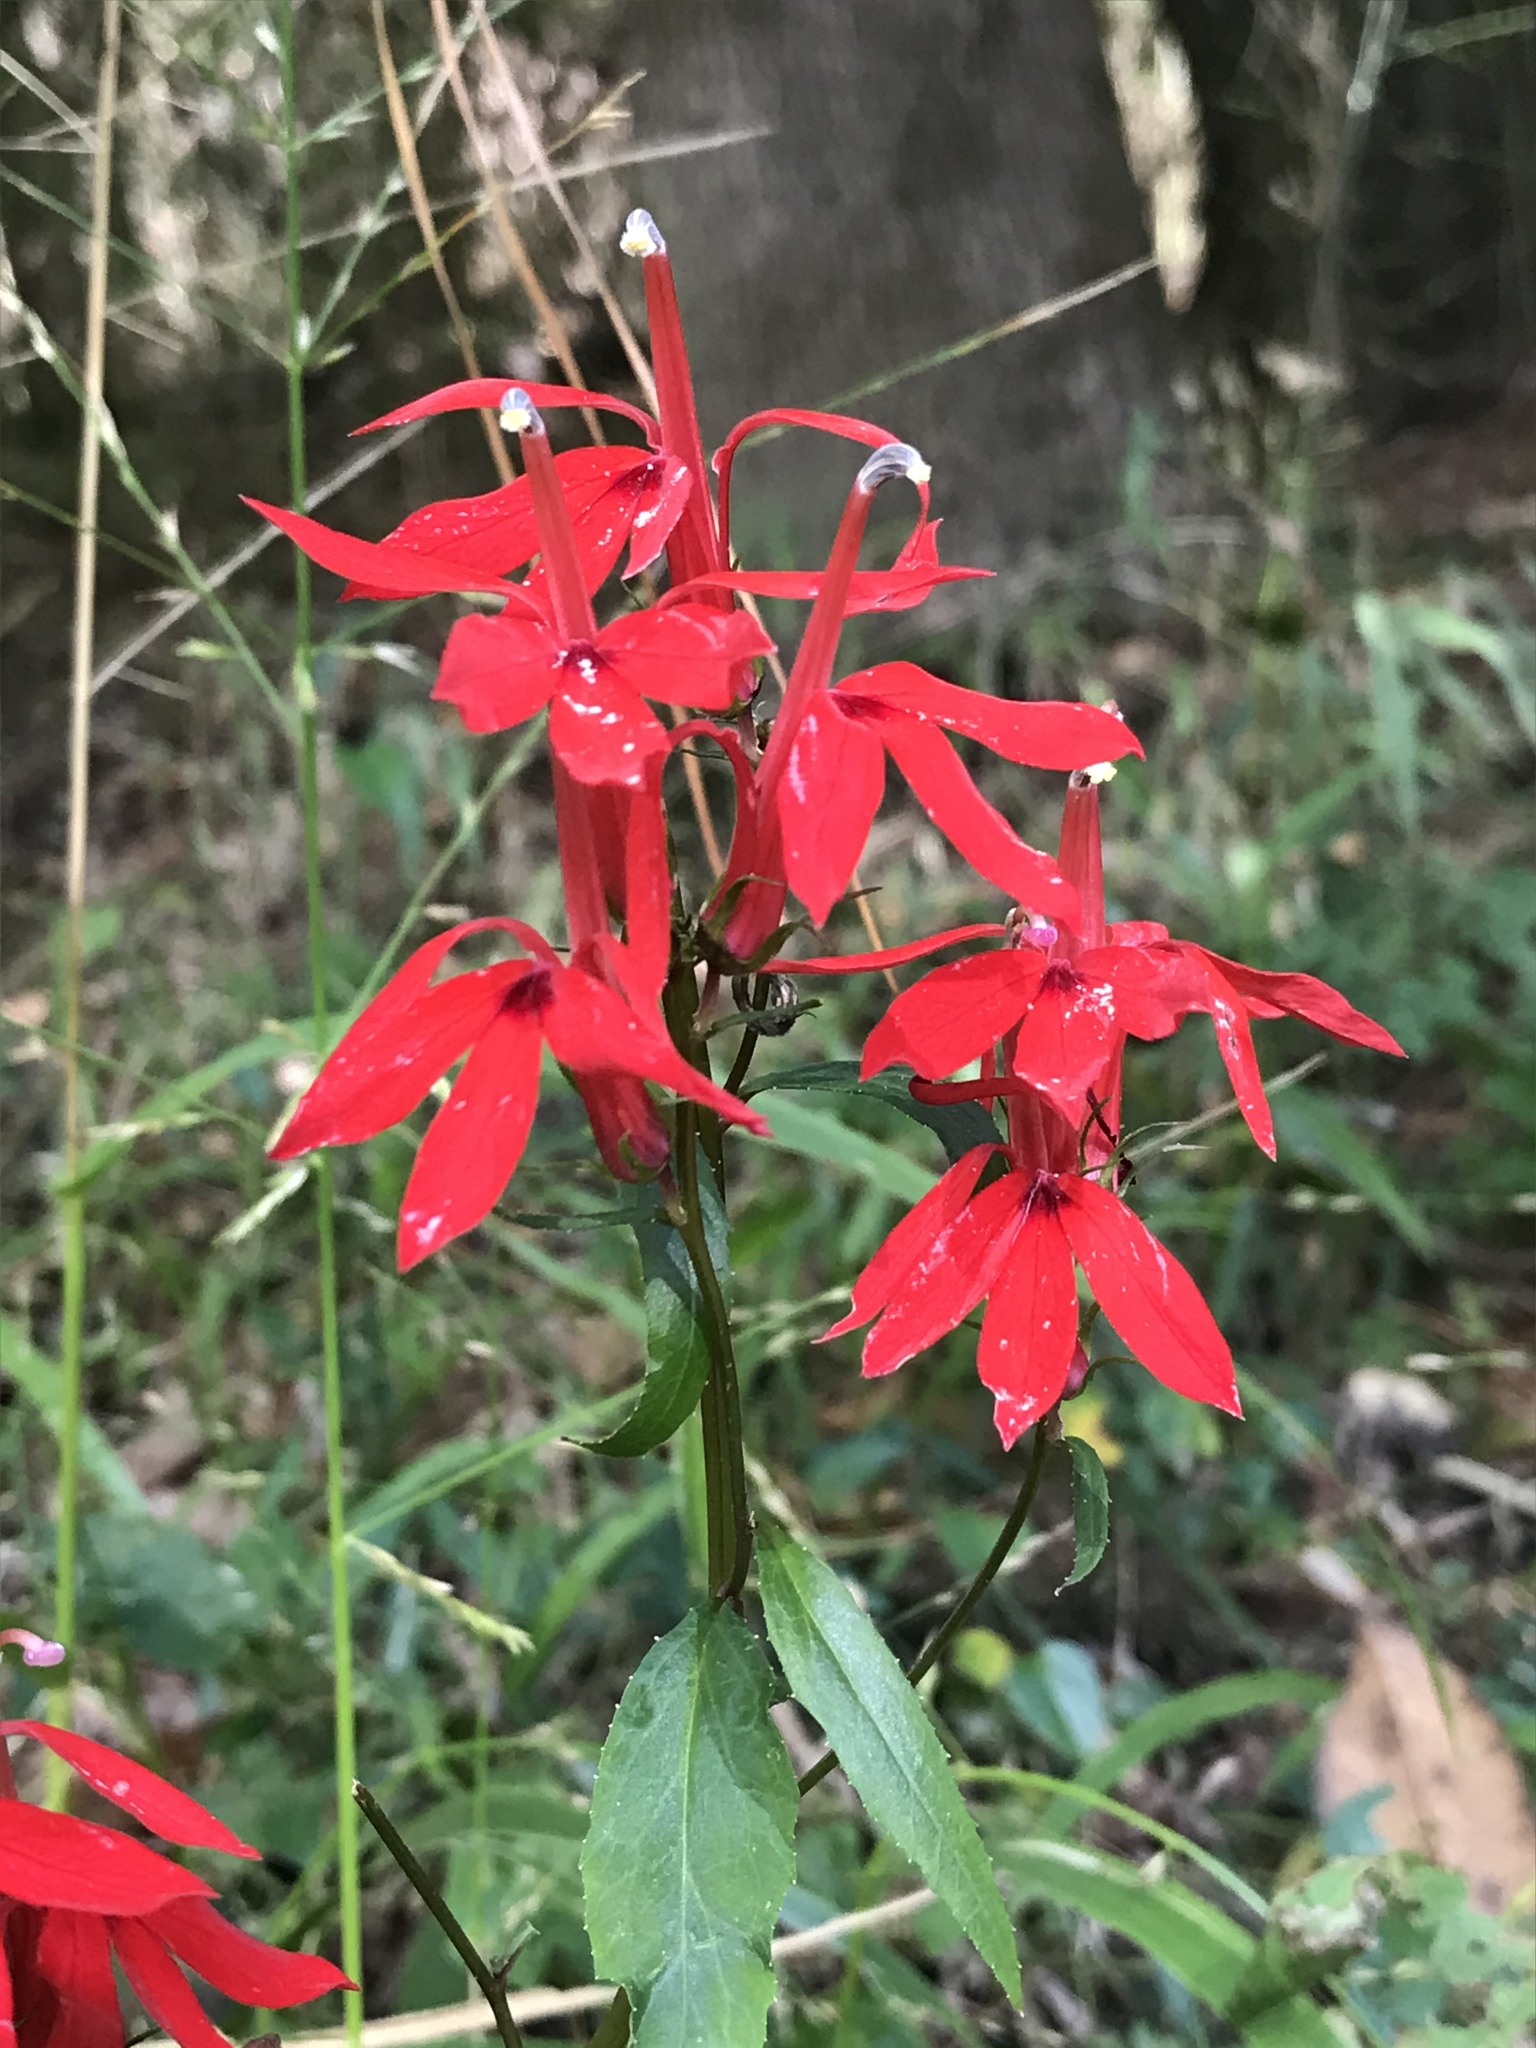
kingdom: Plantae
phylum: Tracheophyta
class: Magnoliopsida
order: Asterales
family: Campanulaceae
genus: Lobelia
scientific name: Lobelia cardinalis
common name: Cardinal flower
